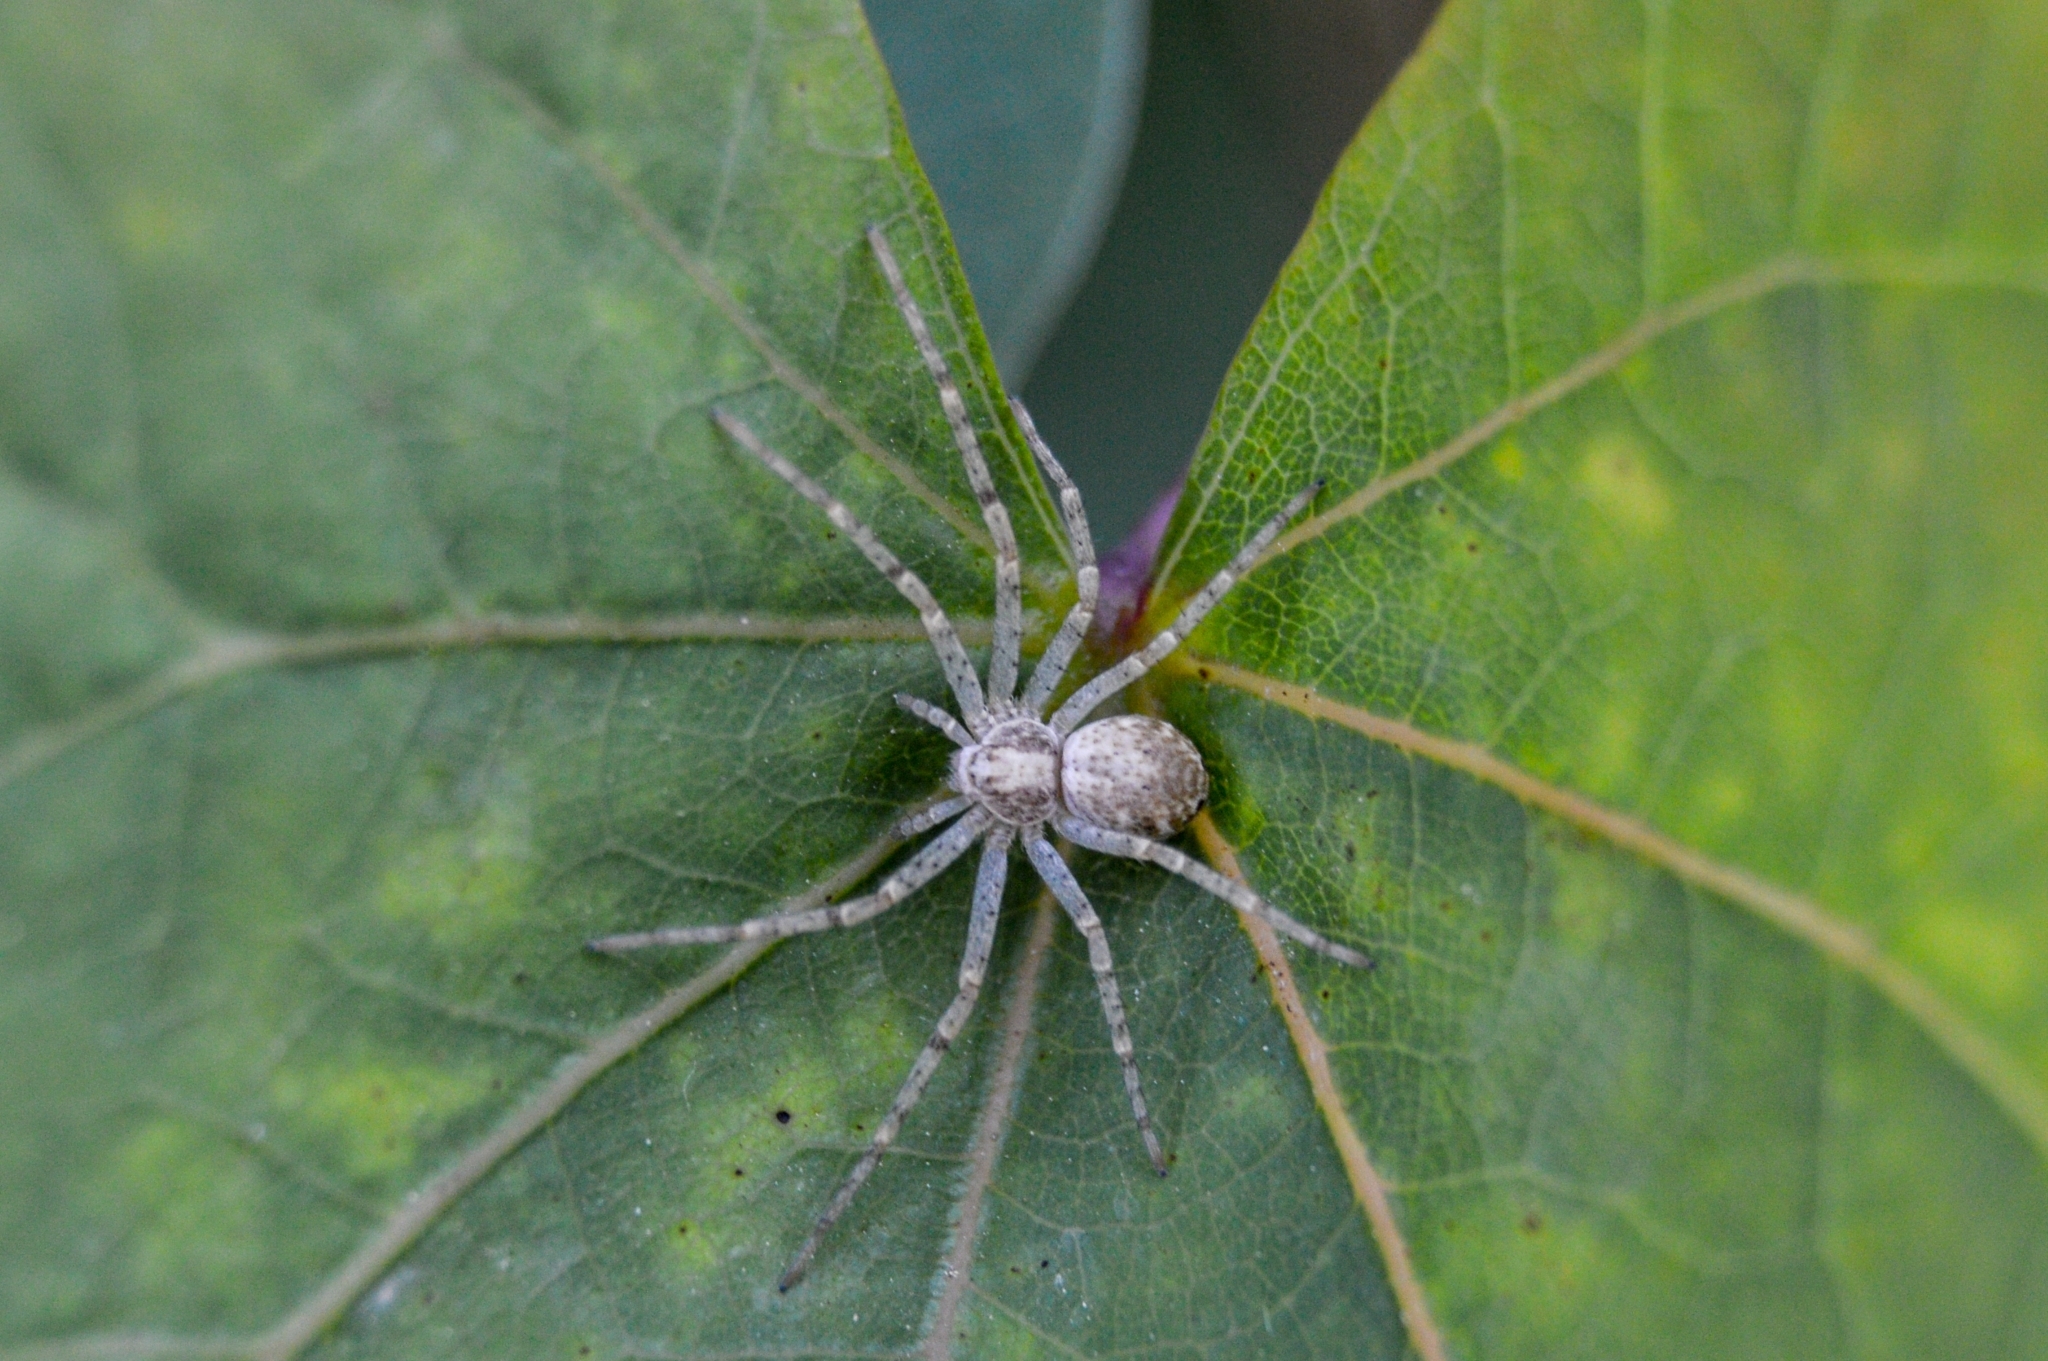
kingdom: Animalia
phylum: Arthropoda
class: Arachnida
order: Araneae
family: Philodromidae
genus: Philodromus
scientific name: Philodromus cespitum
